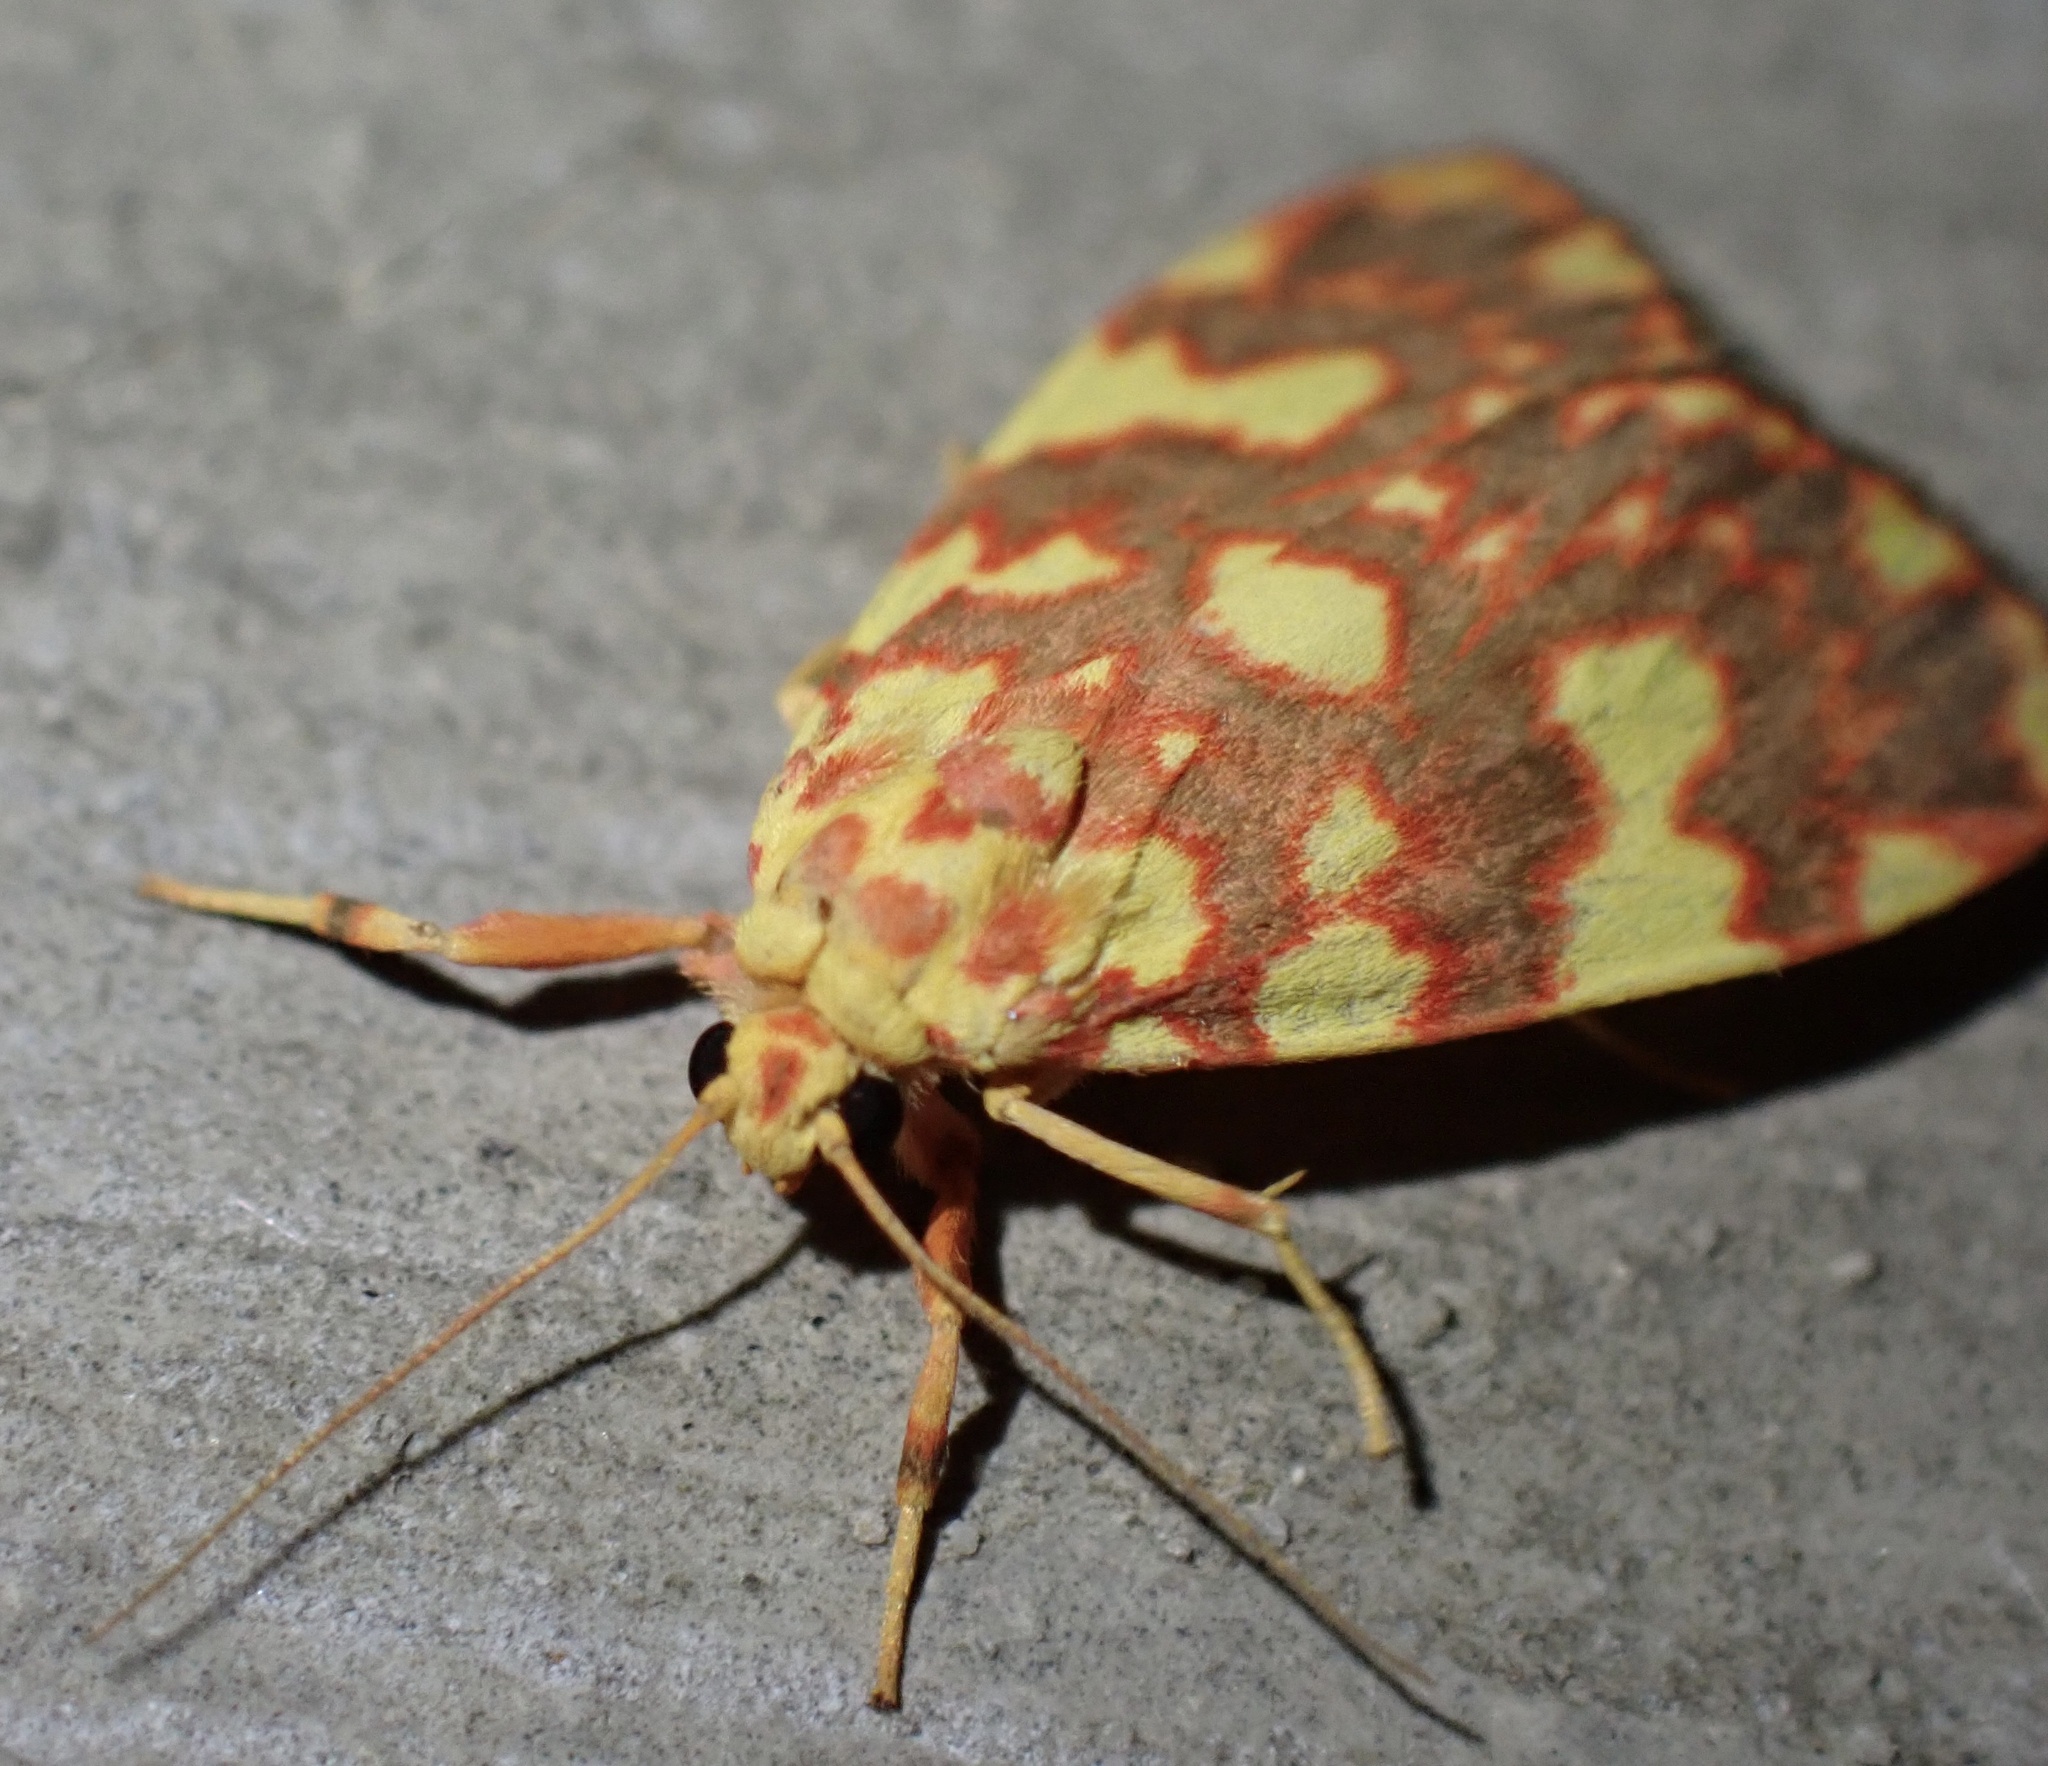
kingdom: Animalia
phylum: Arthropoda
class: Insecta
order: Lepidoptera
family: Erebidae
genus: Cyme
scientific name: Cyme xantherythra
